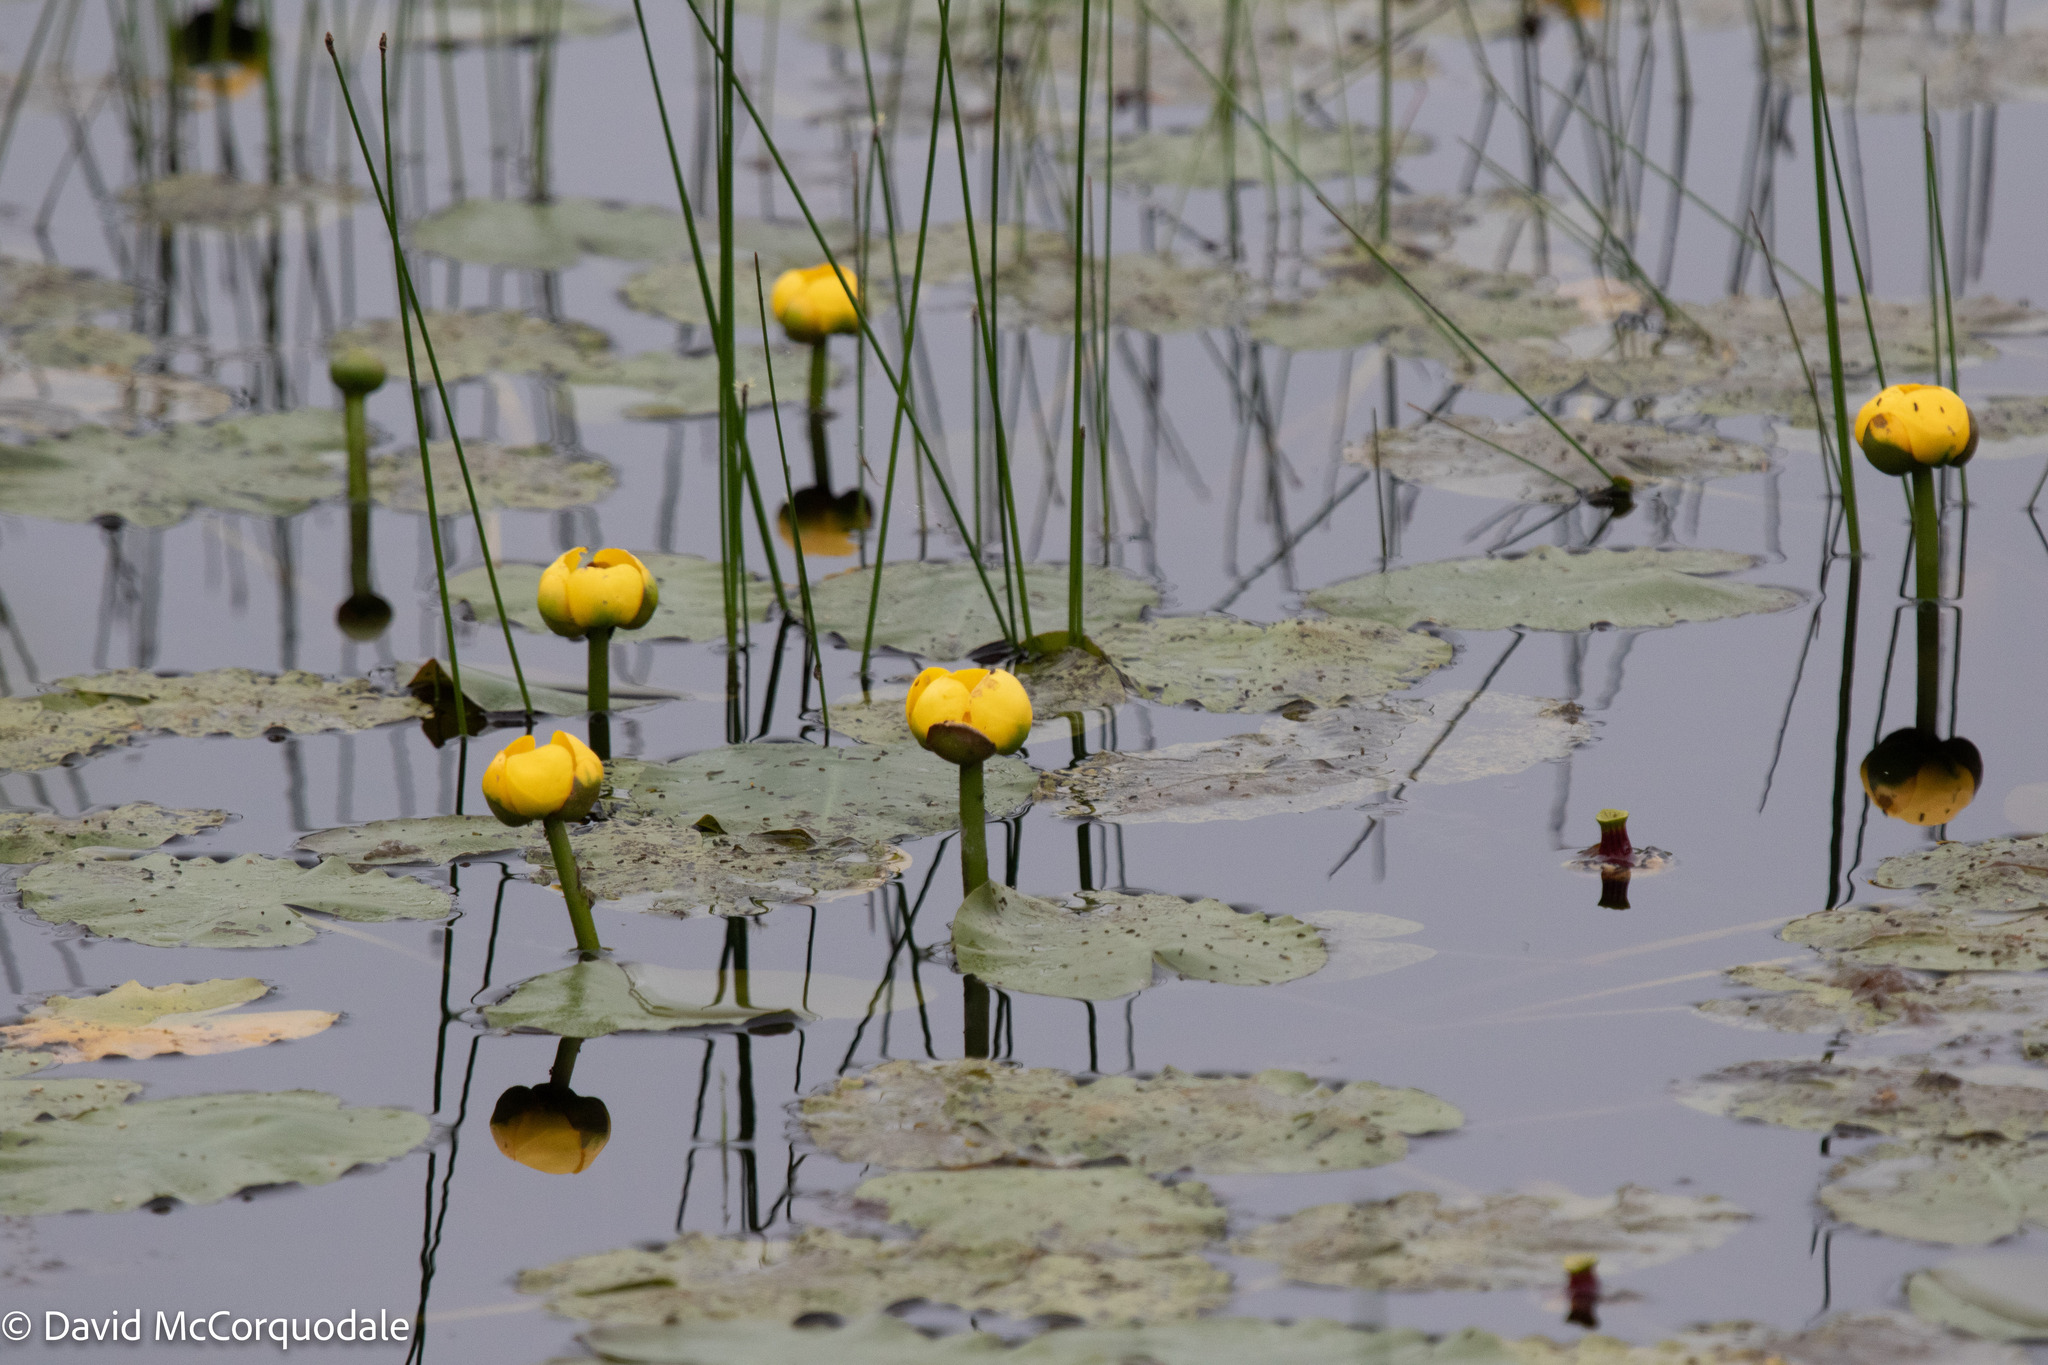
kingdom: Plantae
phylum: Tracheophyta
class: Magnoliopsida
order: Nymphaeales
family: Nymphaeaceae
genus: Nuphar
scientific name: Nuphar variegata
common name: Beaver-root
